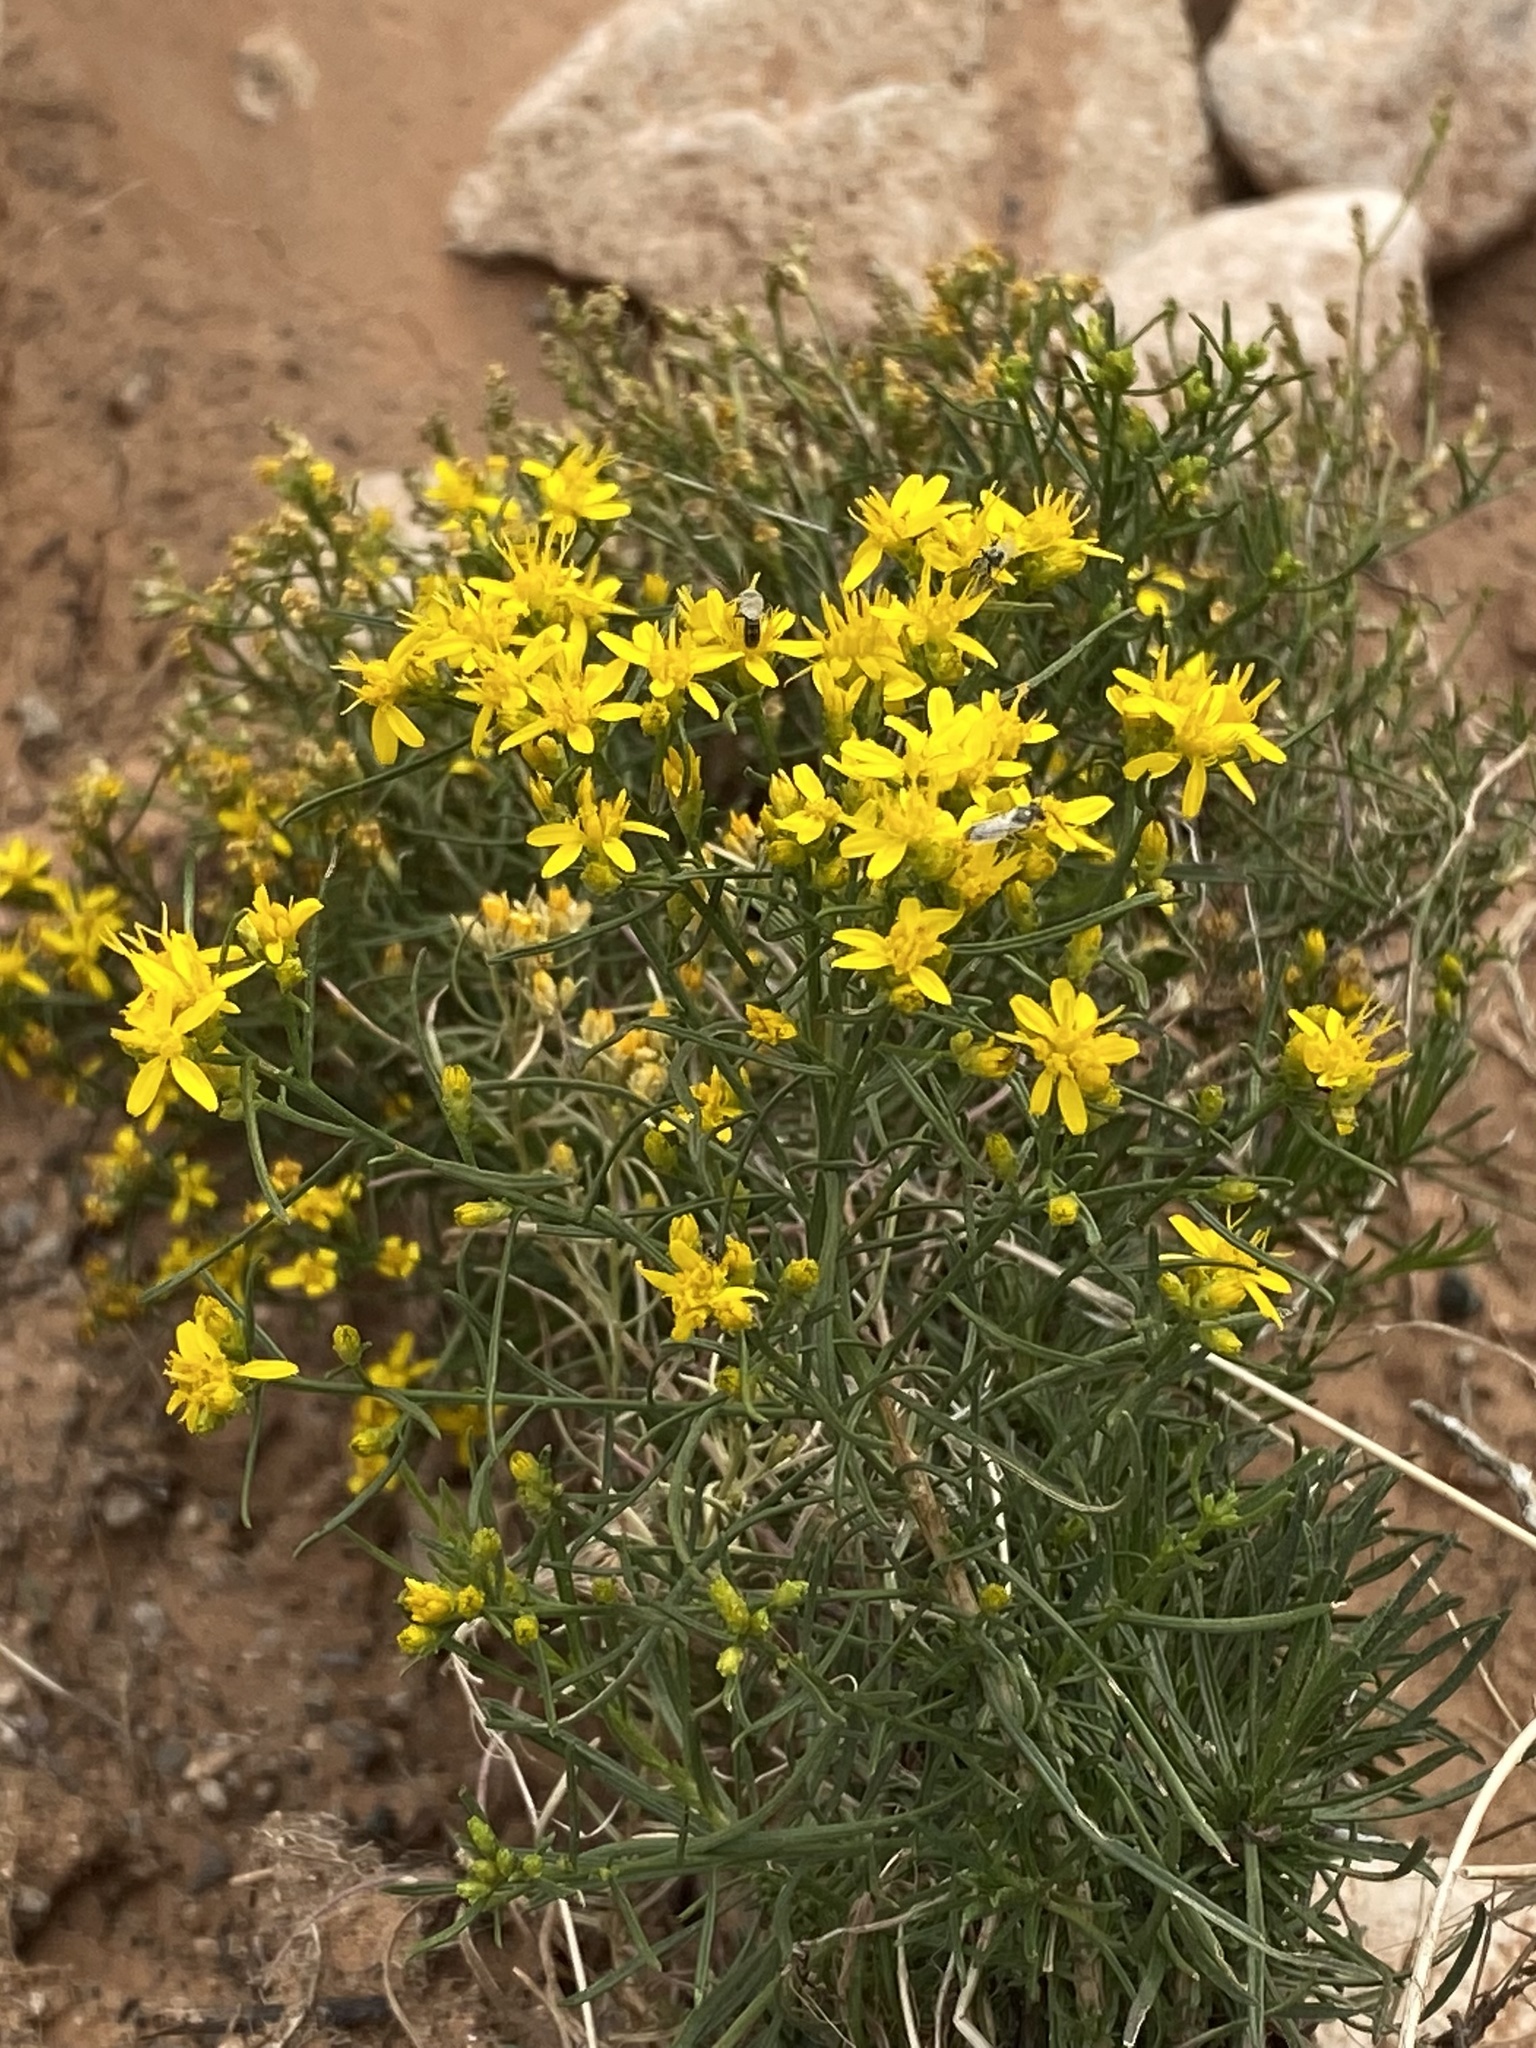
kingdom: Plantae
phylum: Tracheophyta
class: Magnoliopsida
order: Asterales
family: Asteraceae
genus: Gutierrezia
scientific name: Gutierrezia sarothrae
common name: Broom snakeweed
